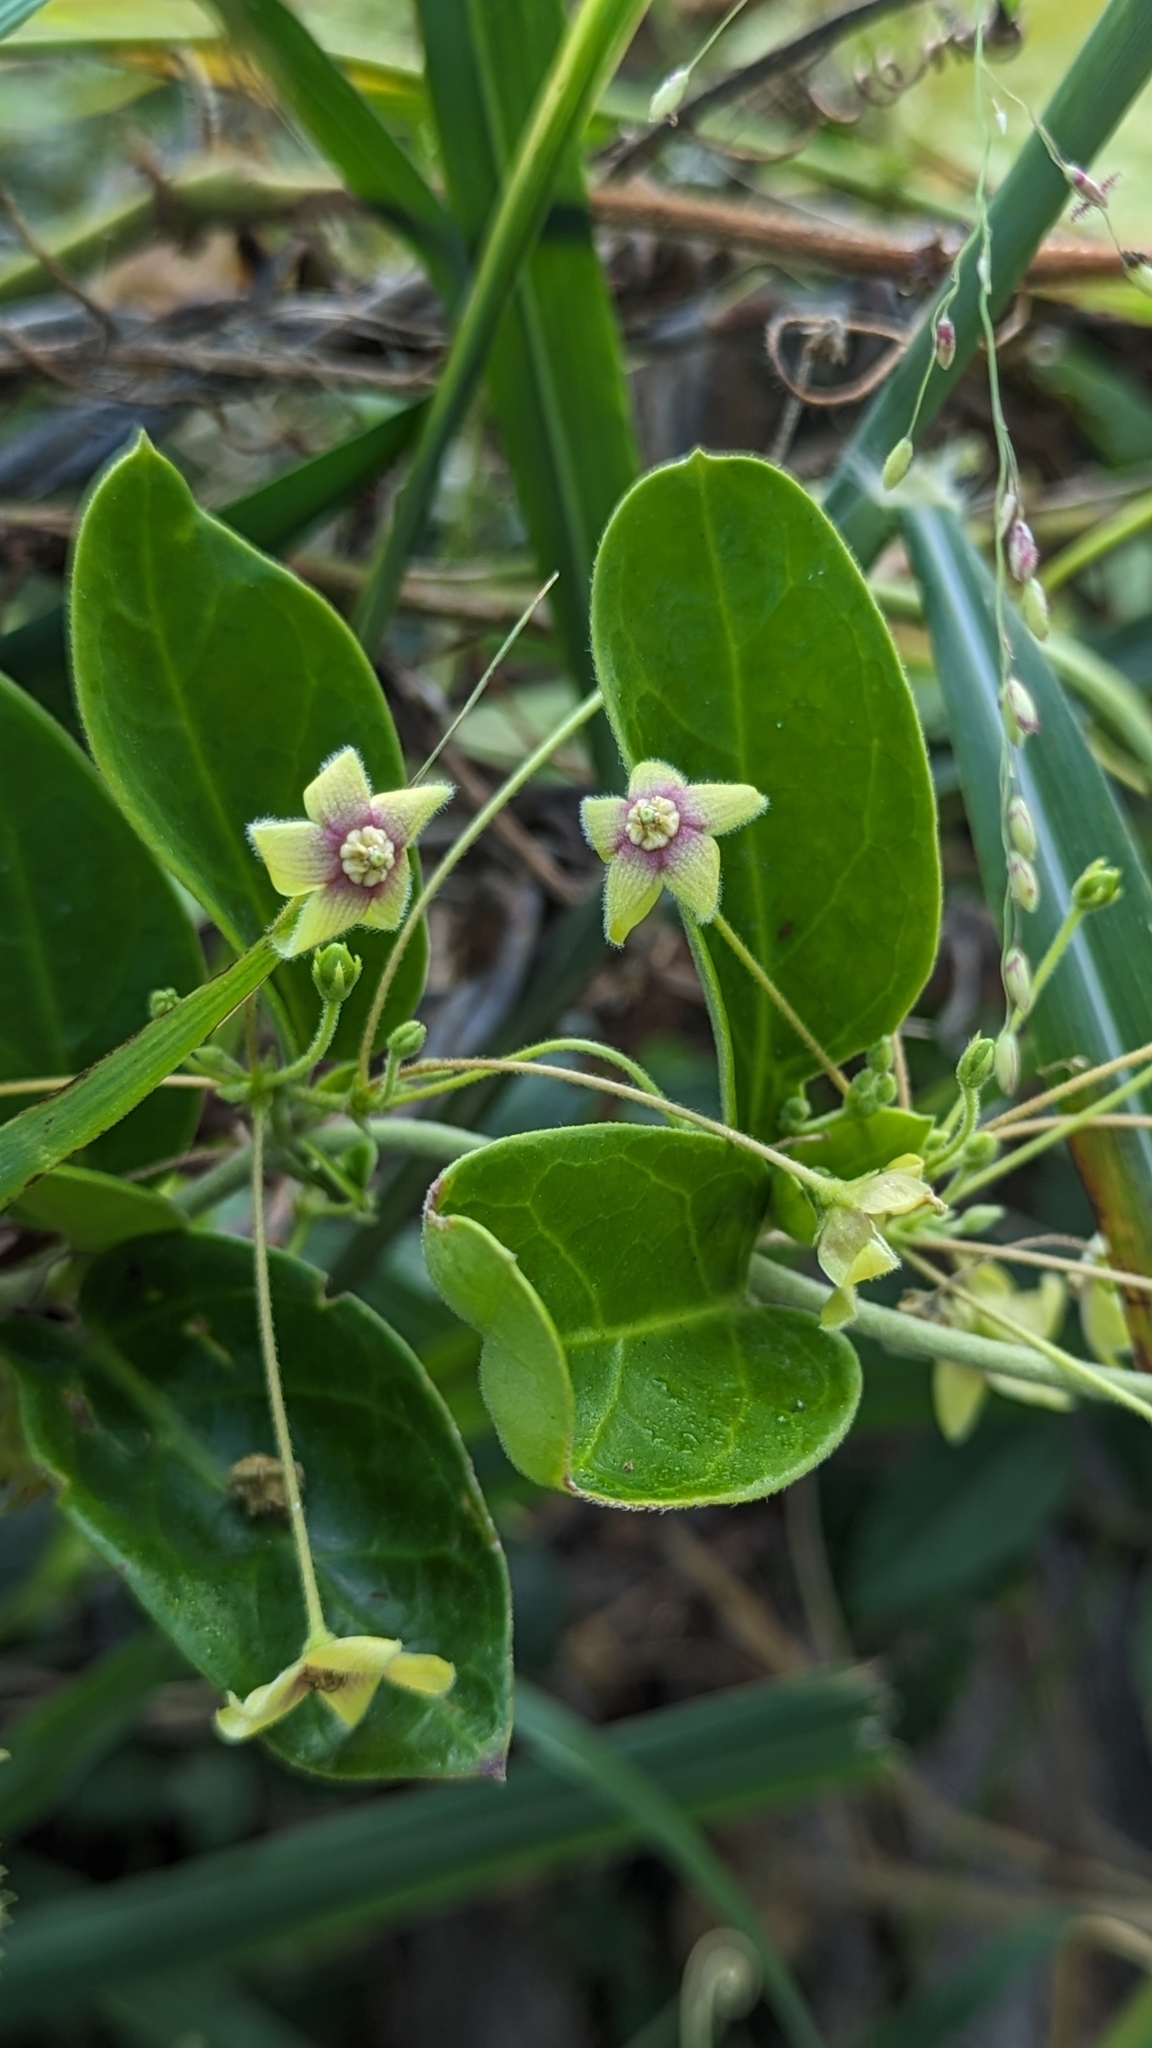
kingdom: Plantae
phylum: Tracheophyta
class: Magnoliopsida
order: Gentianales
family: Apocynaceae
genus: Vincetoxicum
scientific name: Vincetoxicum indicum
